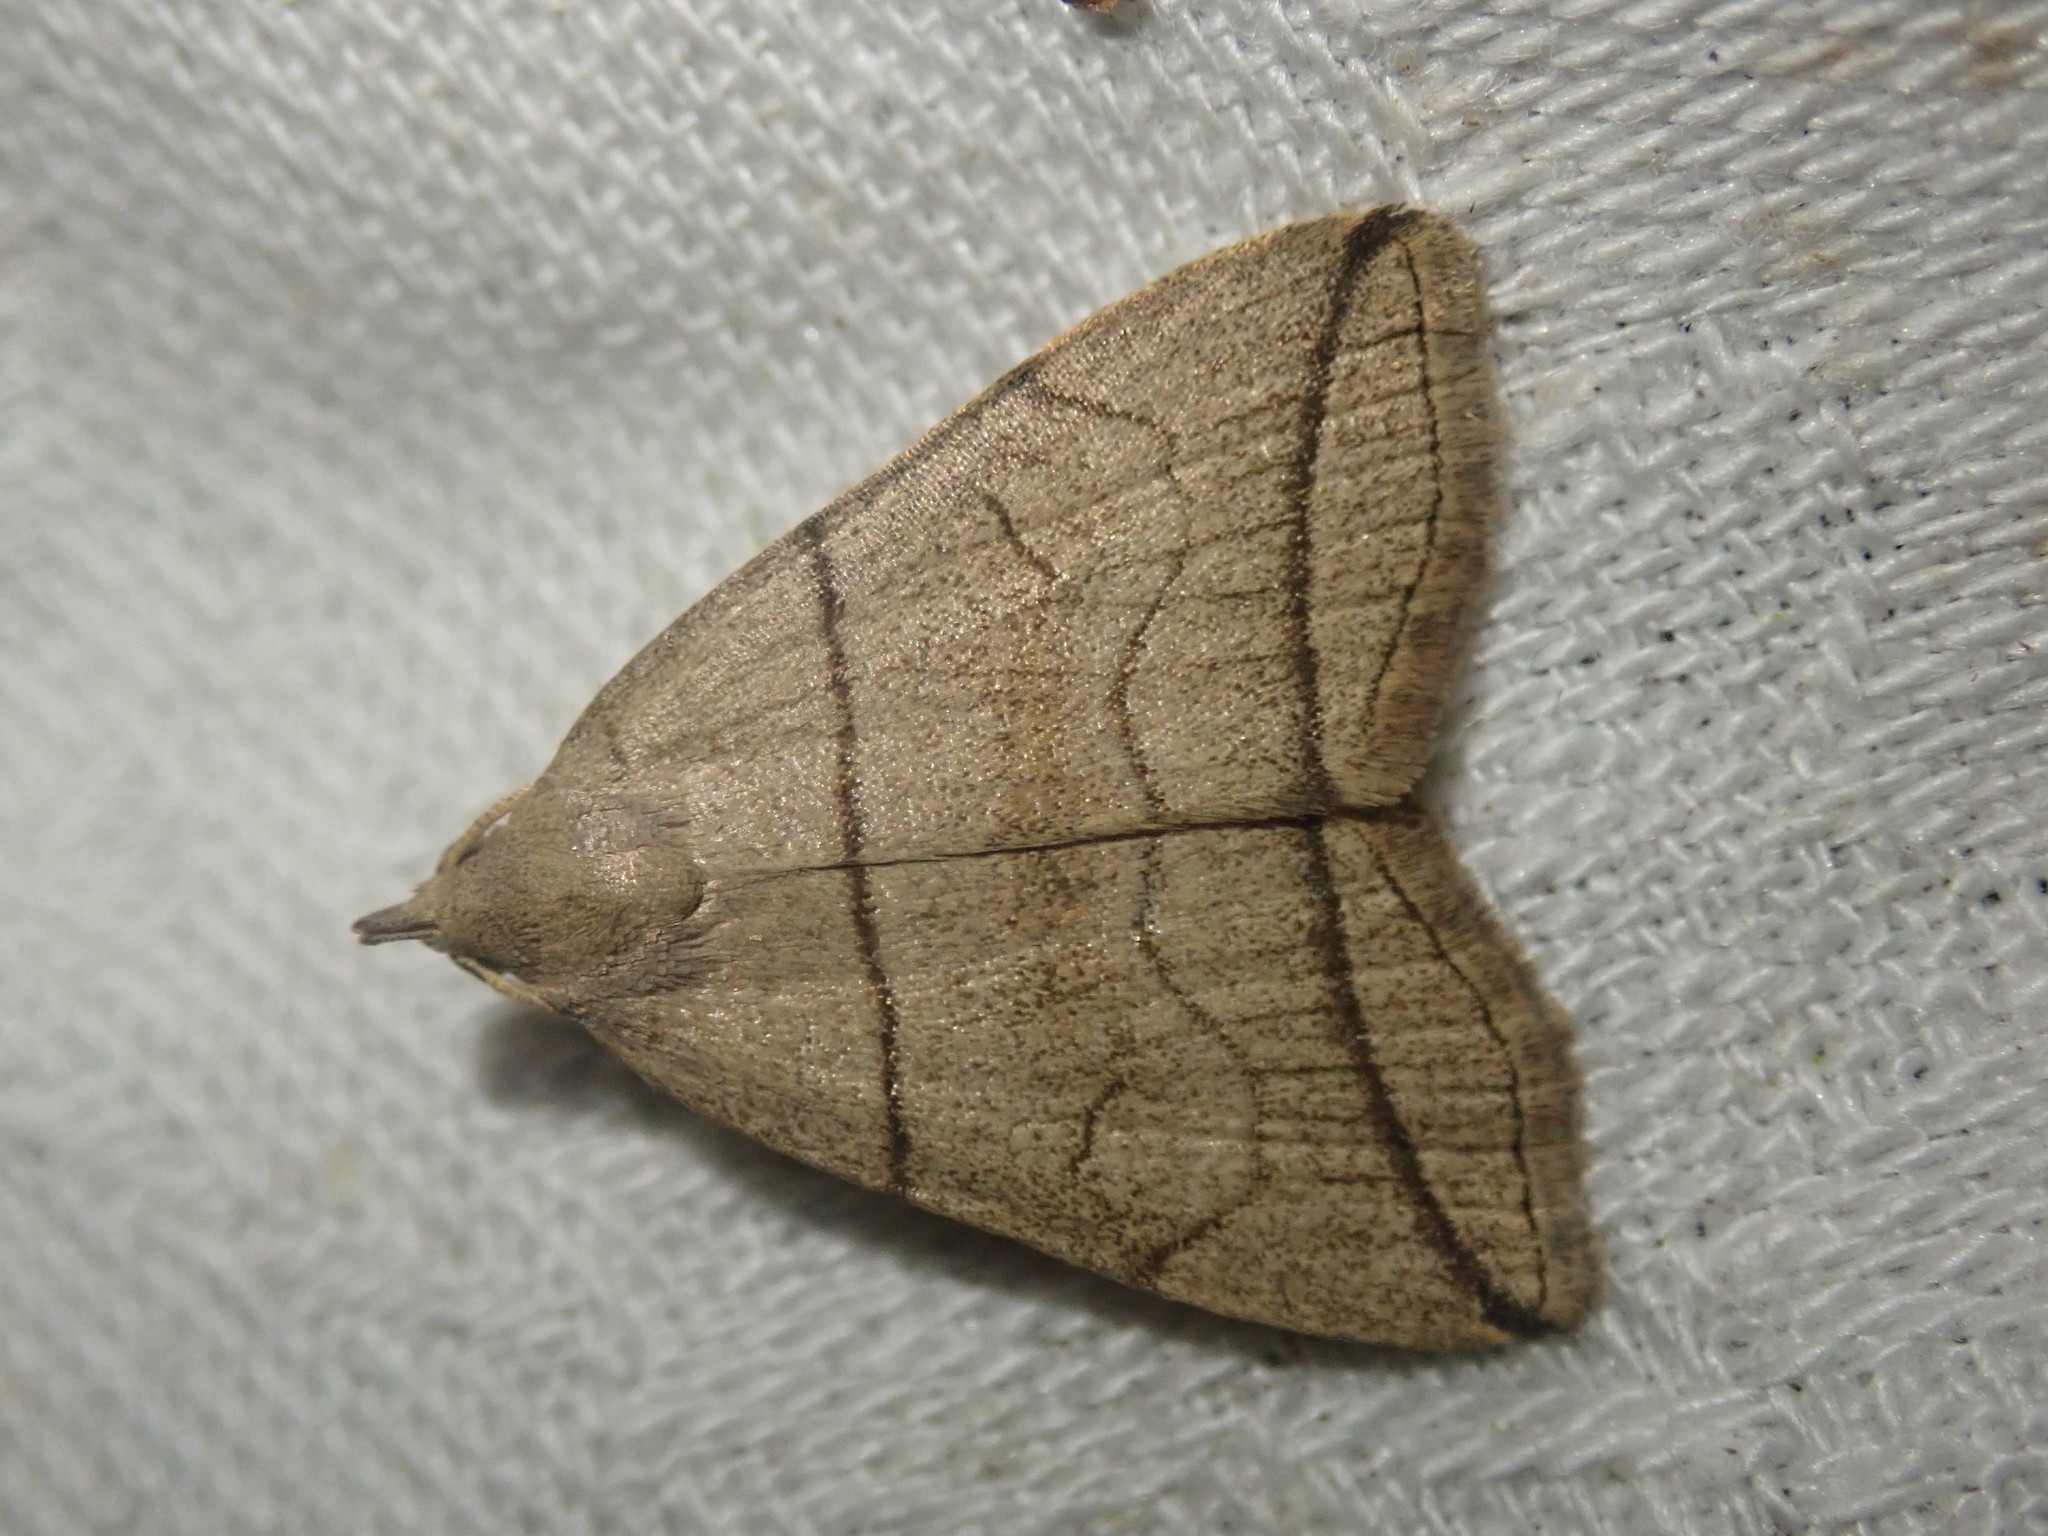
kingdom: Animalia
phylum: Arthropoda
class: Insecta
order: Lepidoptera
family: Erebidae
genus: Herminia
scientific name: Herminia grisealis
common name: Small fan-foot
